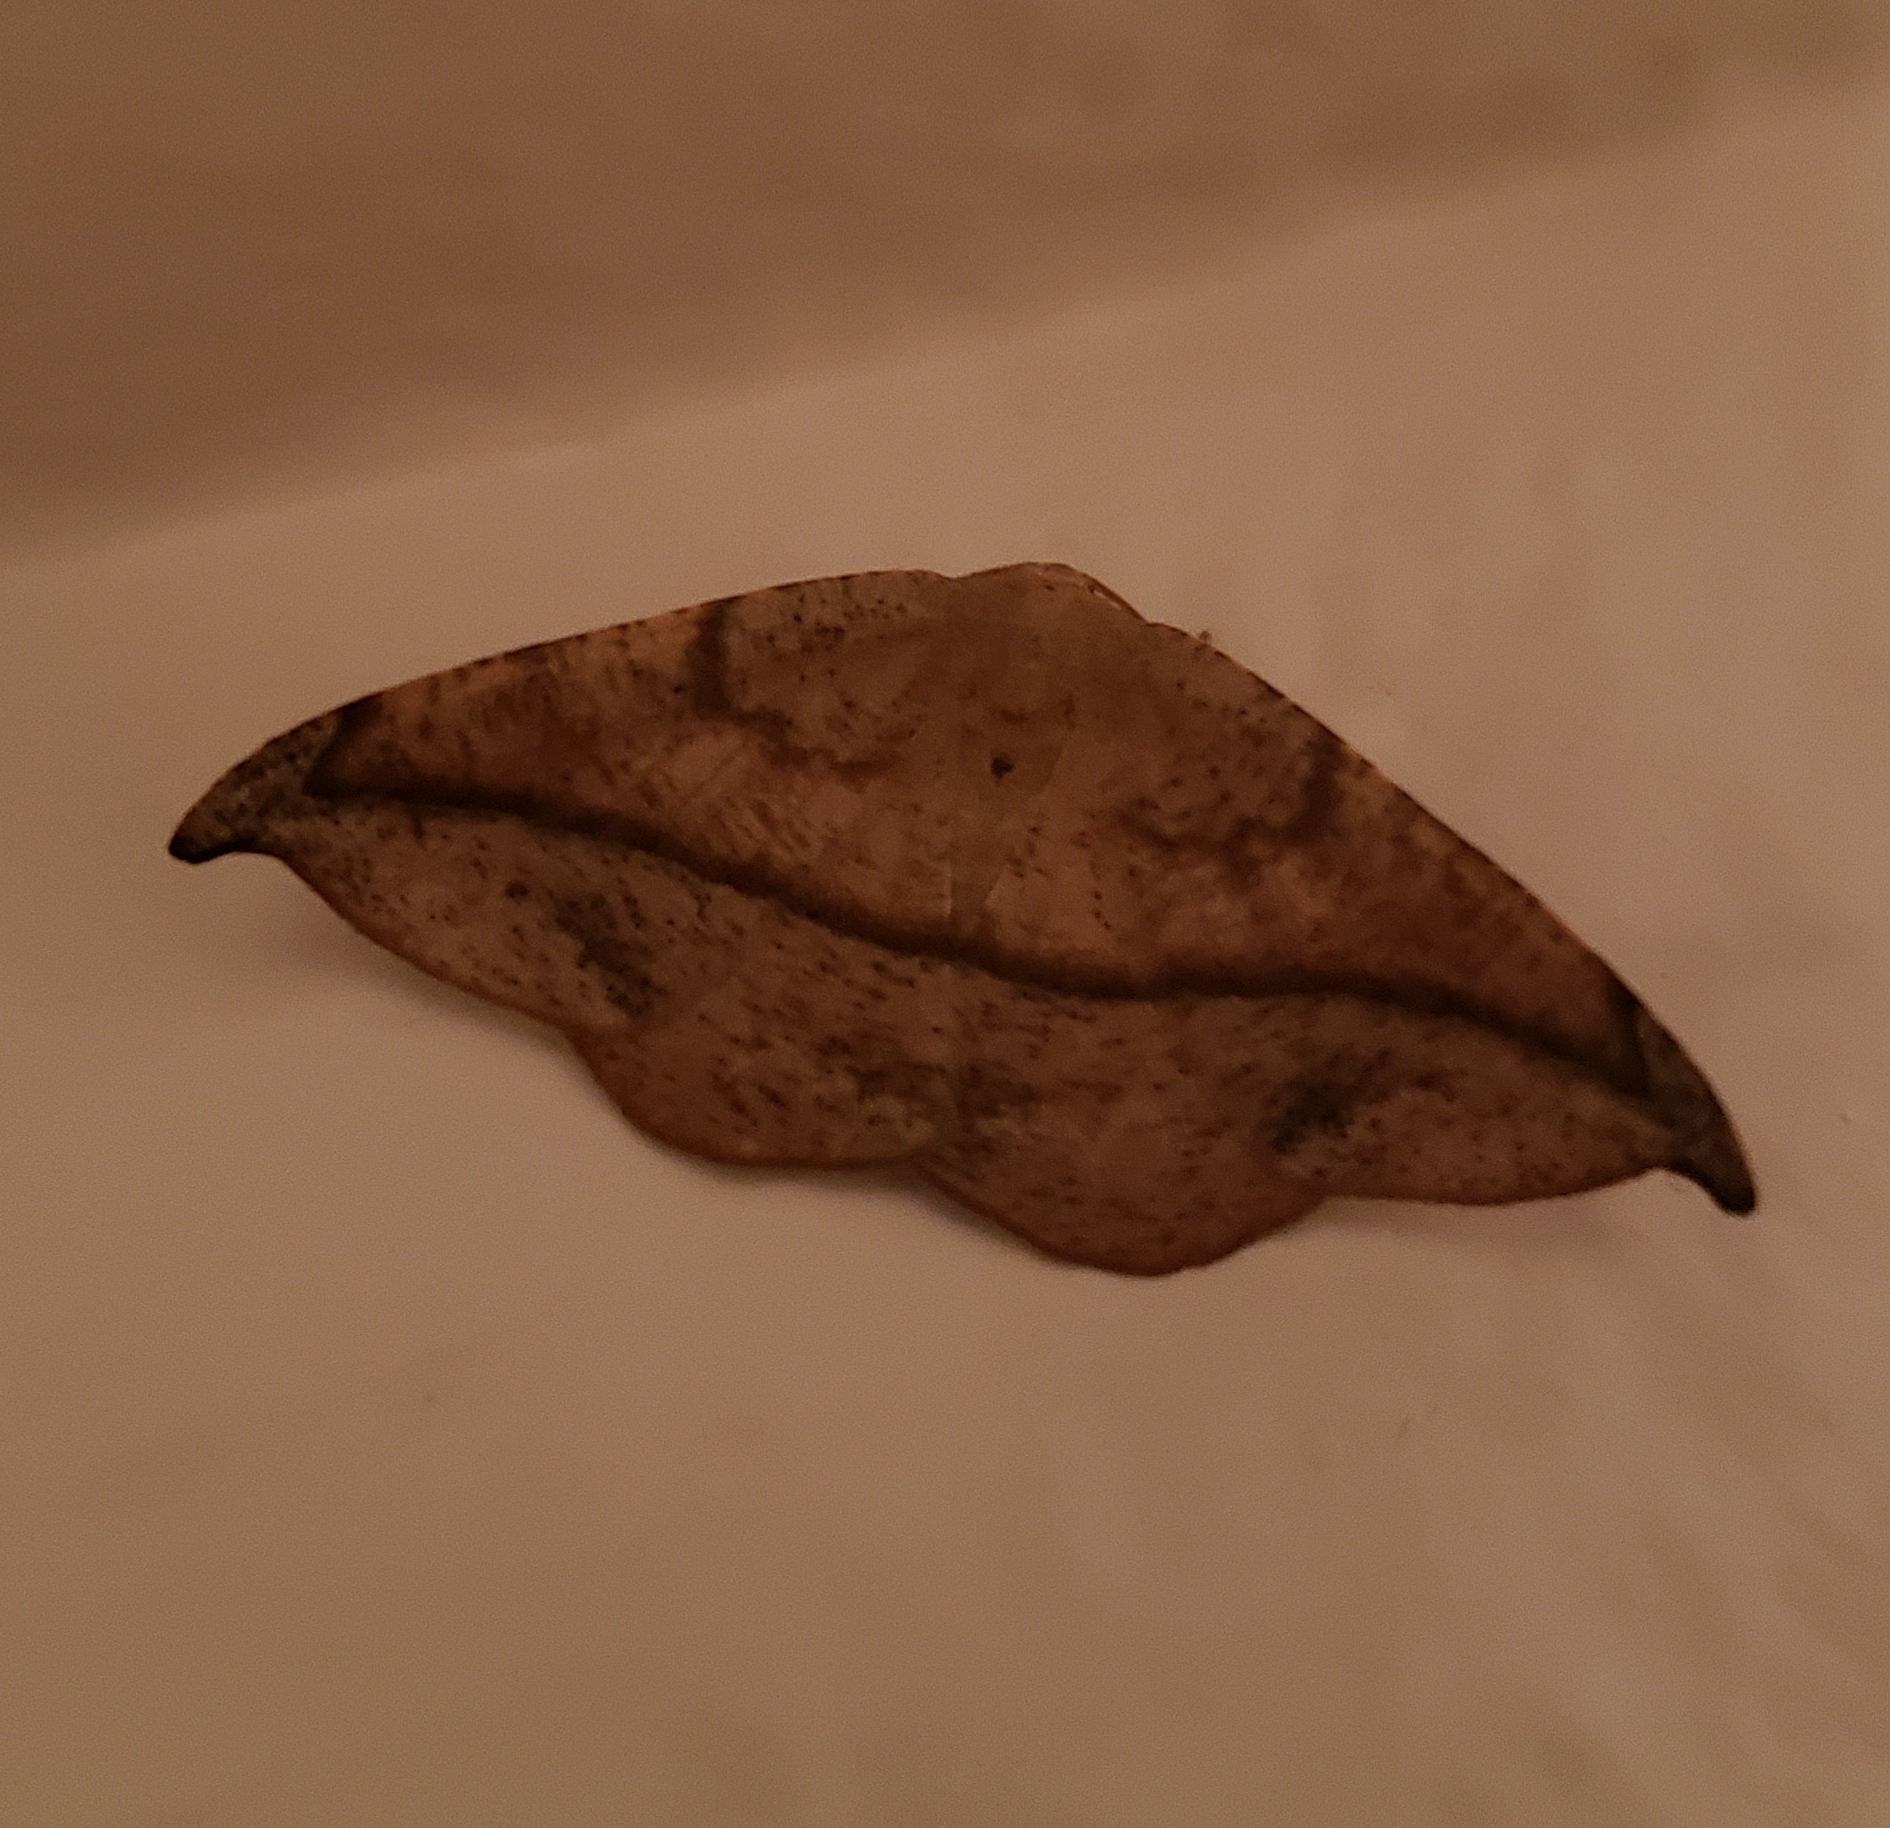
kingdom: Animalia
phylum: Arthropoda
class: Insecta
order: Lepidoptera
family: Geometridae
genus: Patalene
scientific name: Patalene olyzonaria
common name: Juniper geometer moth
